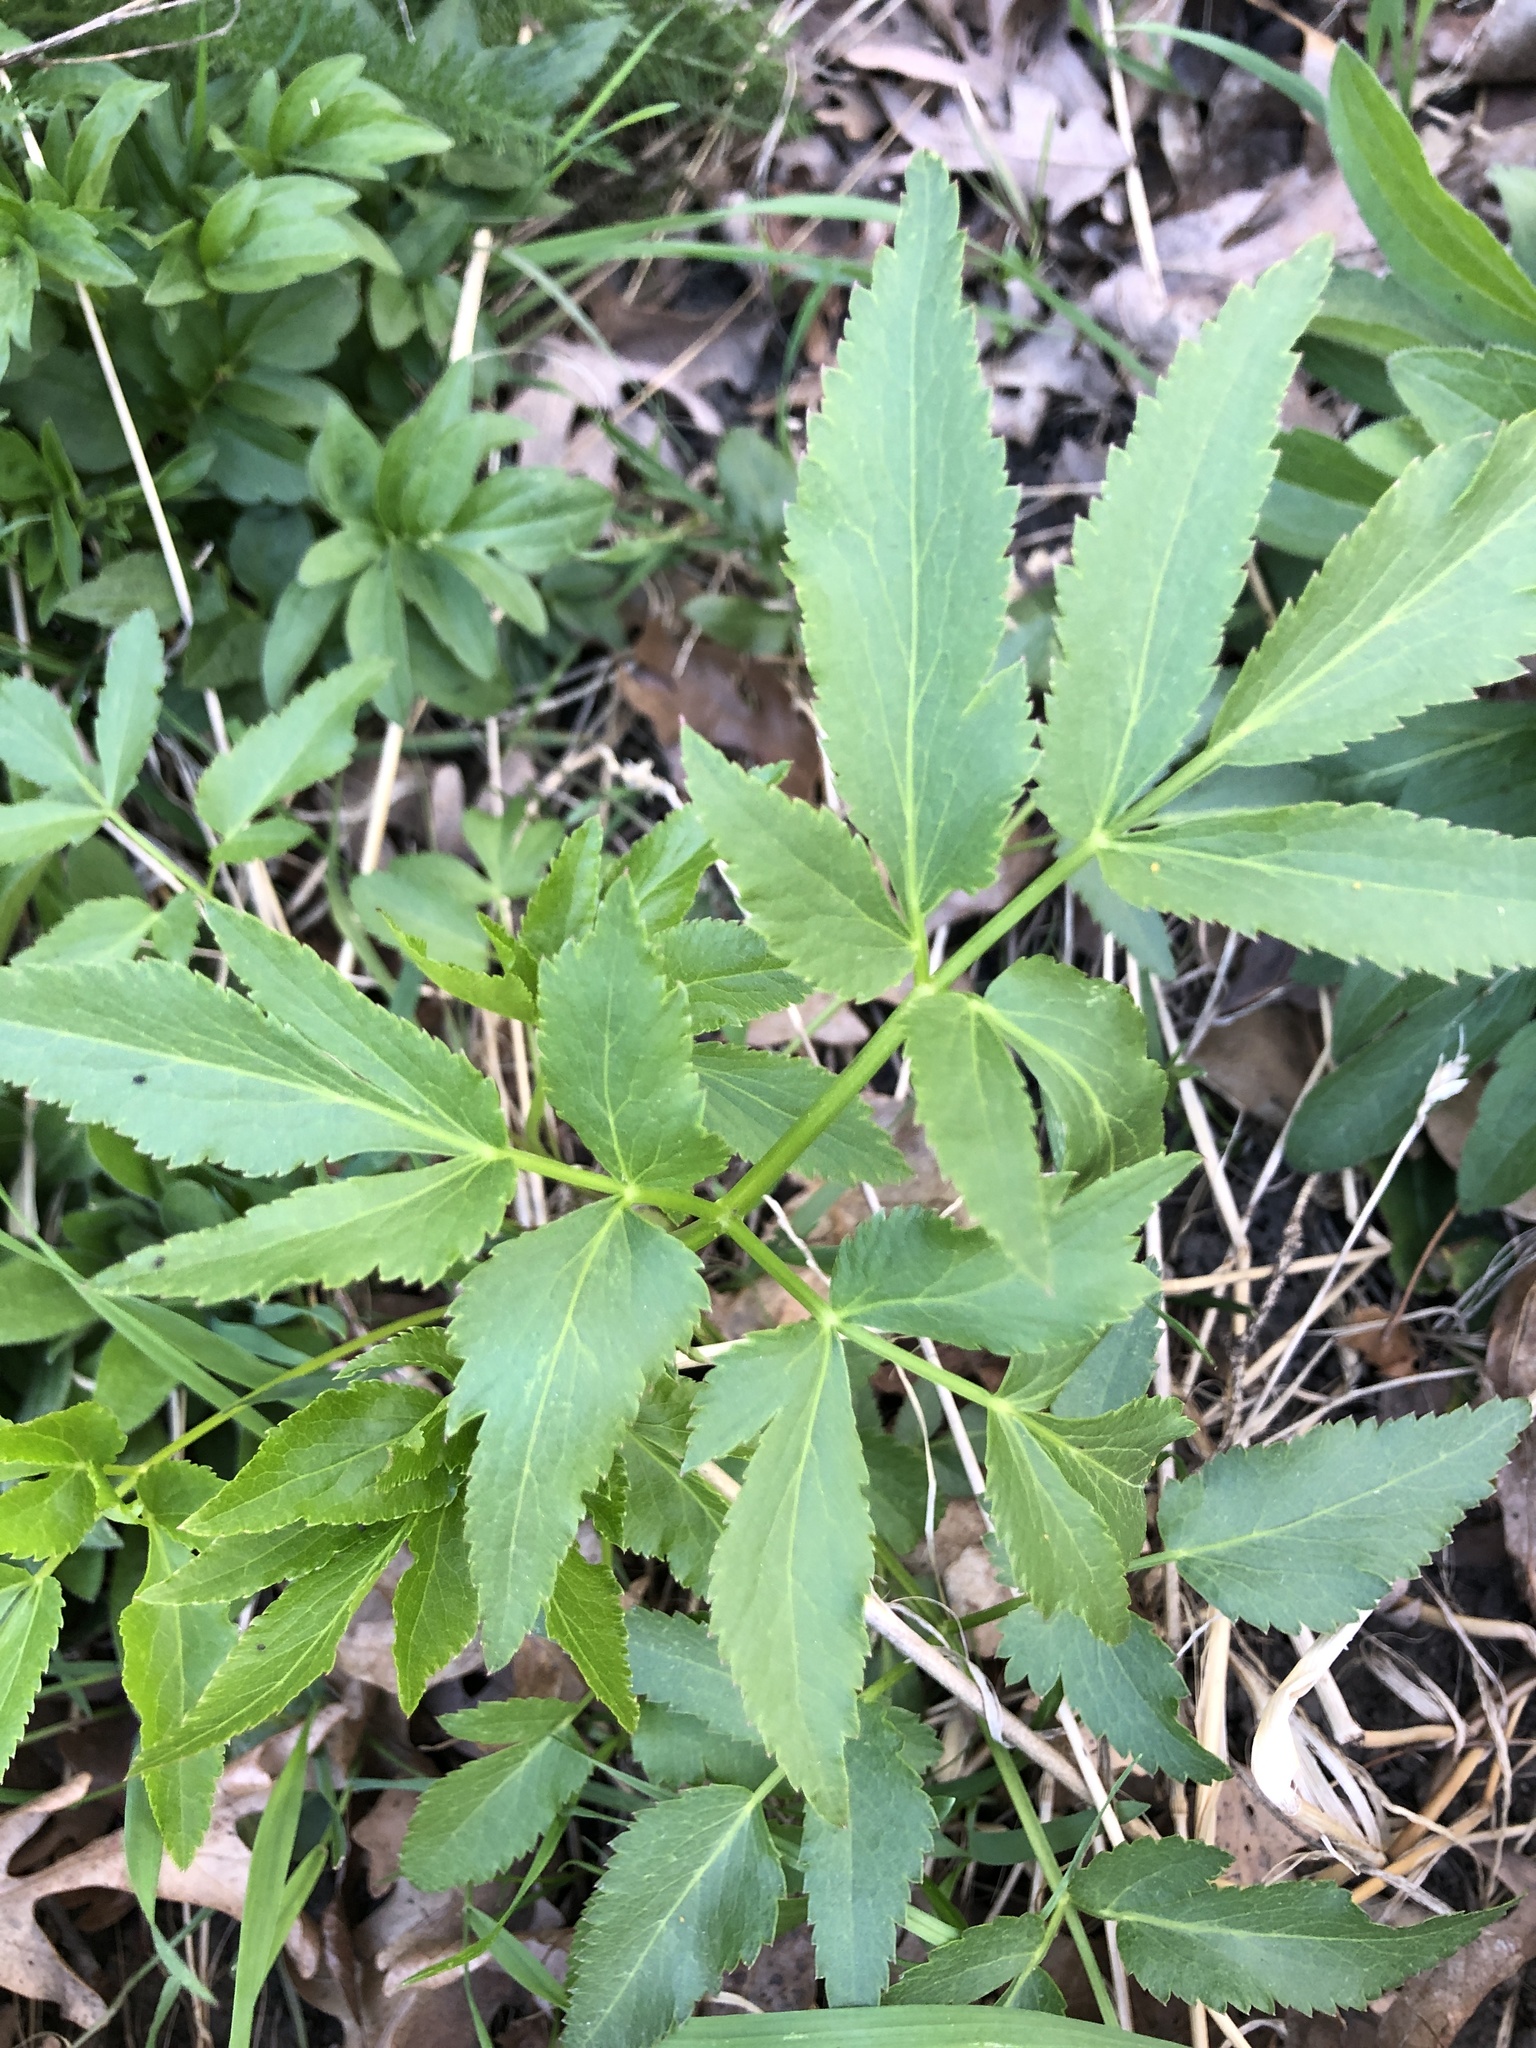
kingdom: Plantae
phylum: Tracheophyta
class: Magnoliopsida
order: Apiales
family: Apiaceae
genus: Zizia
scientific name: Zizia aurea
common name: Golden alexanders
